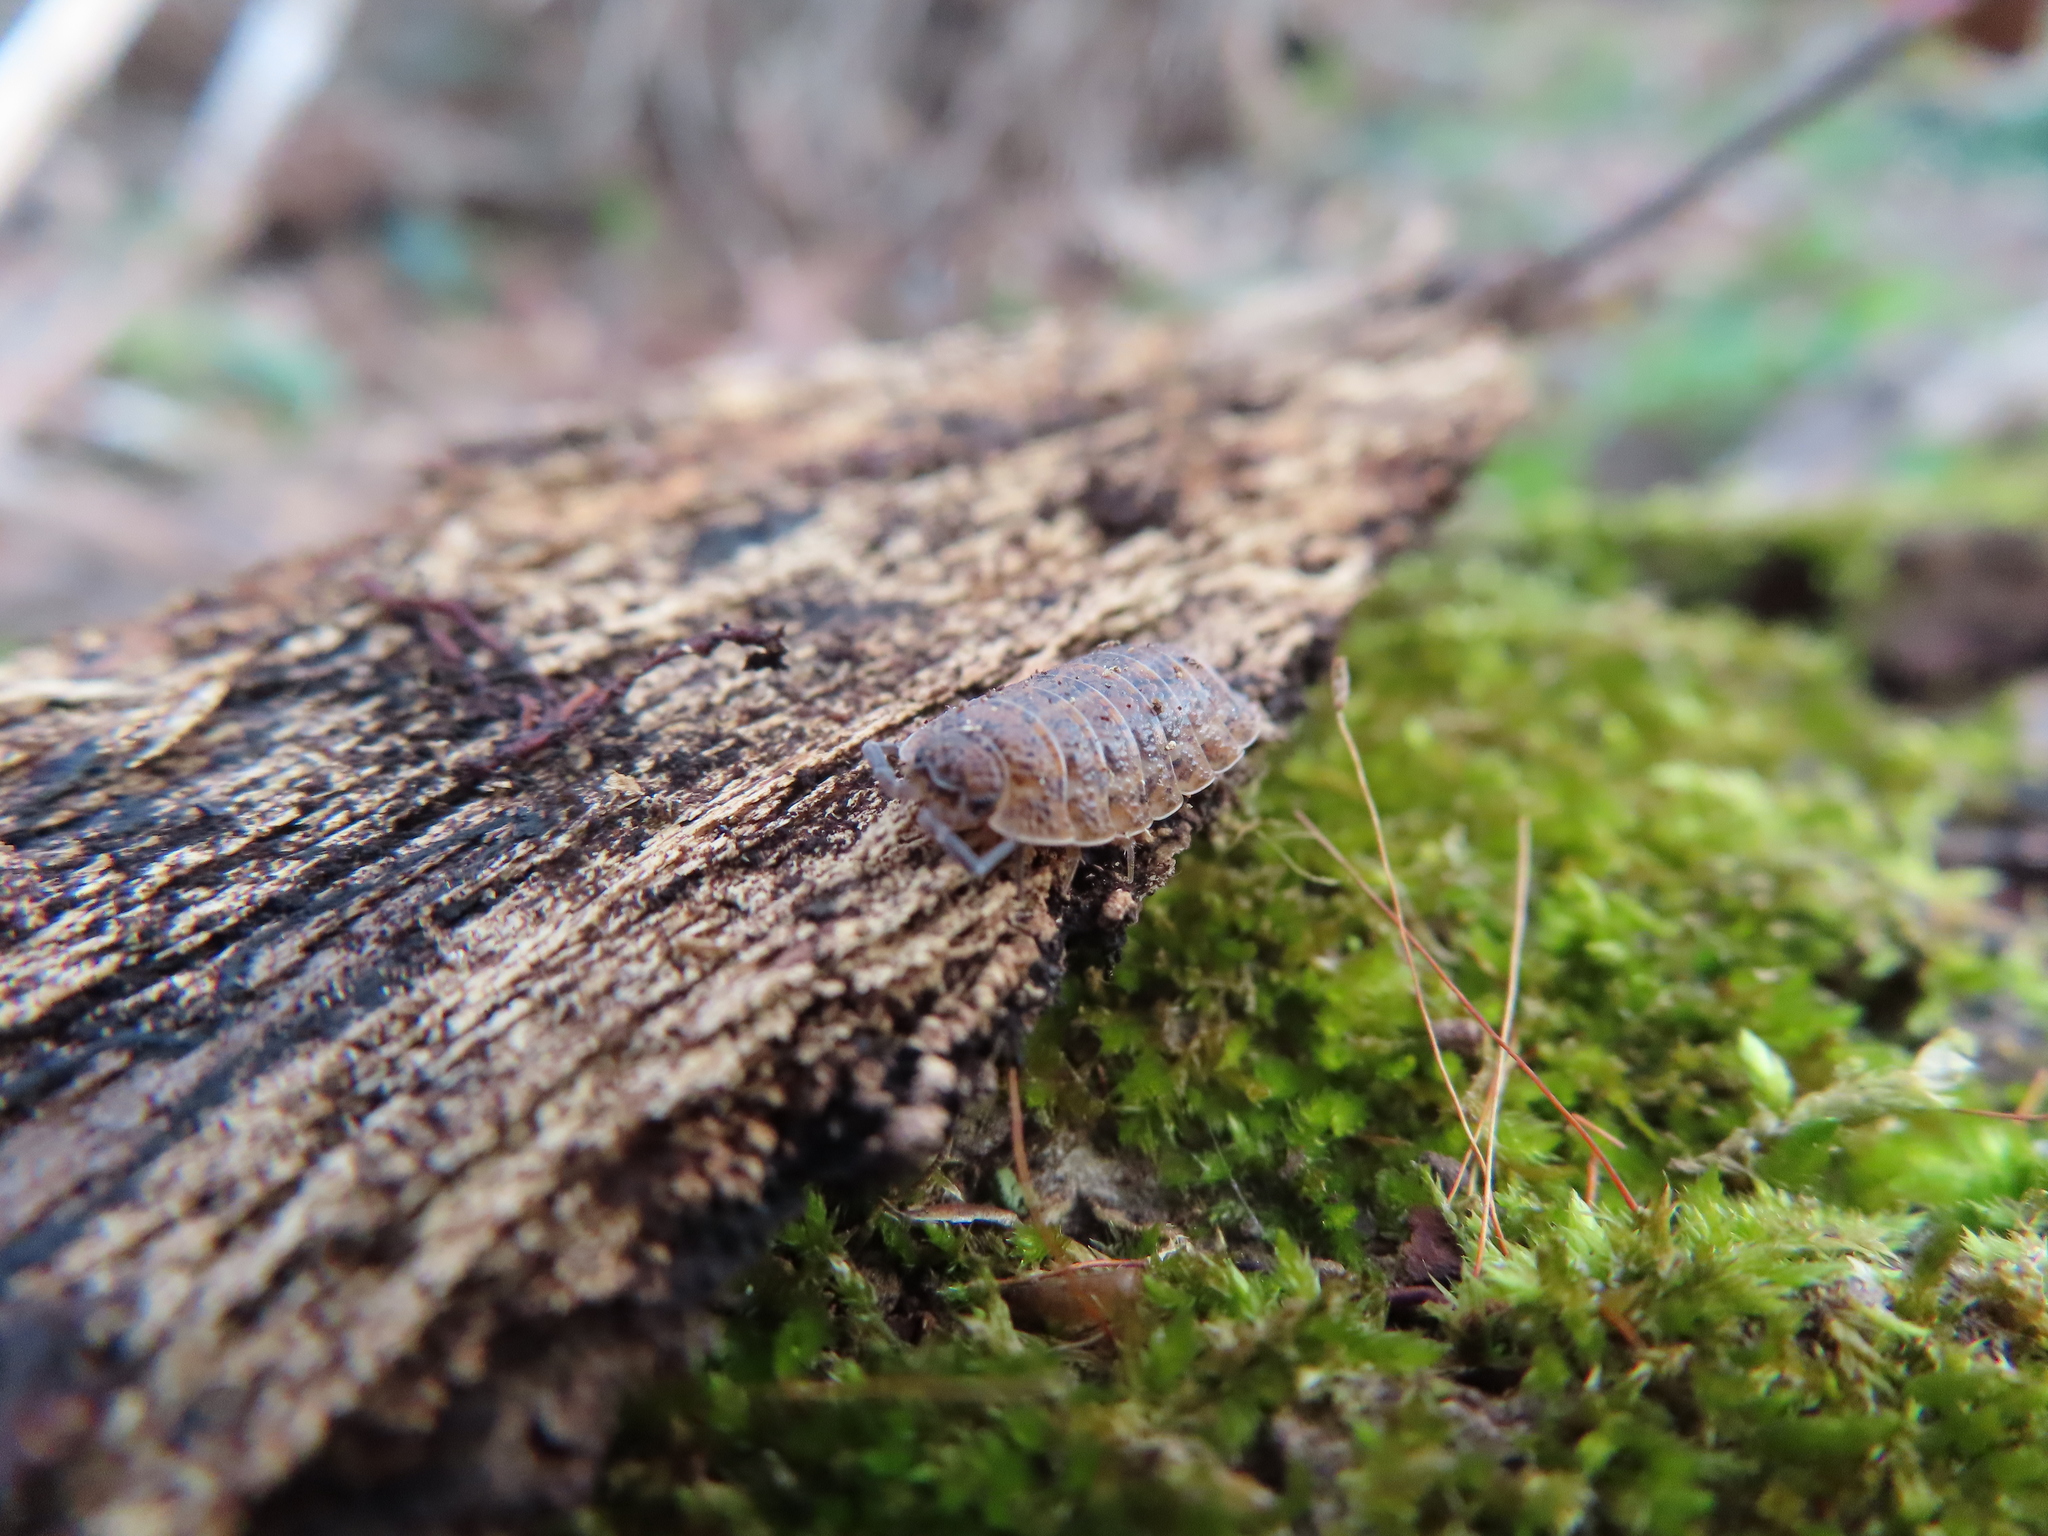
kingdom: Animalia
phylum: Arthropoda
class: Malacostraca
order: Isopoda
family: Trachelipodidae
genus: Trachelipus
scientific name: Trachelipus rathkii
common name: Isopod
